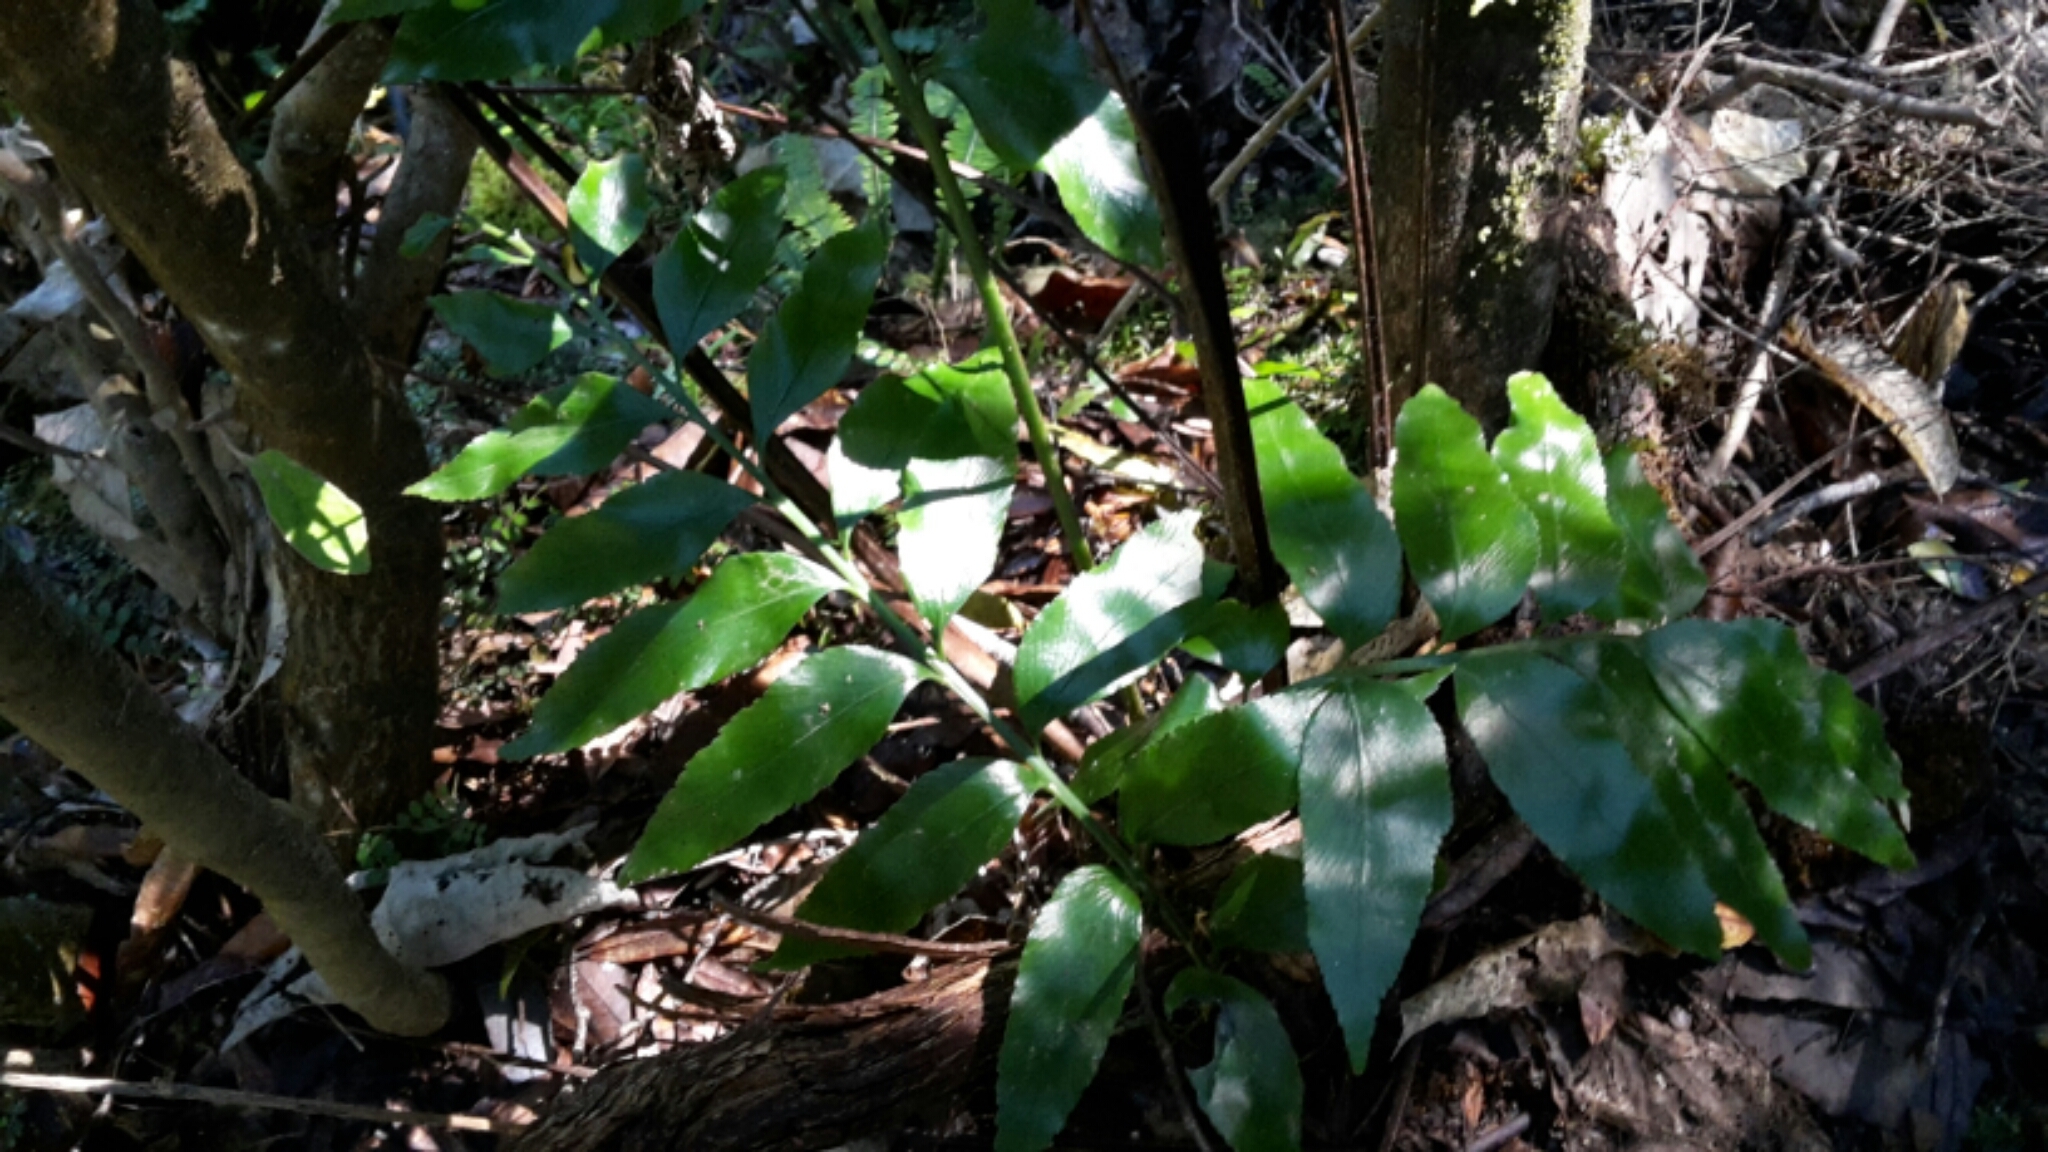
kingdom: Plantae
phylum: Tracheophyta
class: Polypodiopsida
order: Polypodiales
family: Aspleniaceae
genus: Asplenium
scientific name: Asplenium oblongifolium
